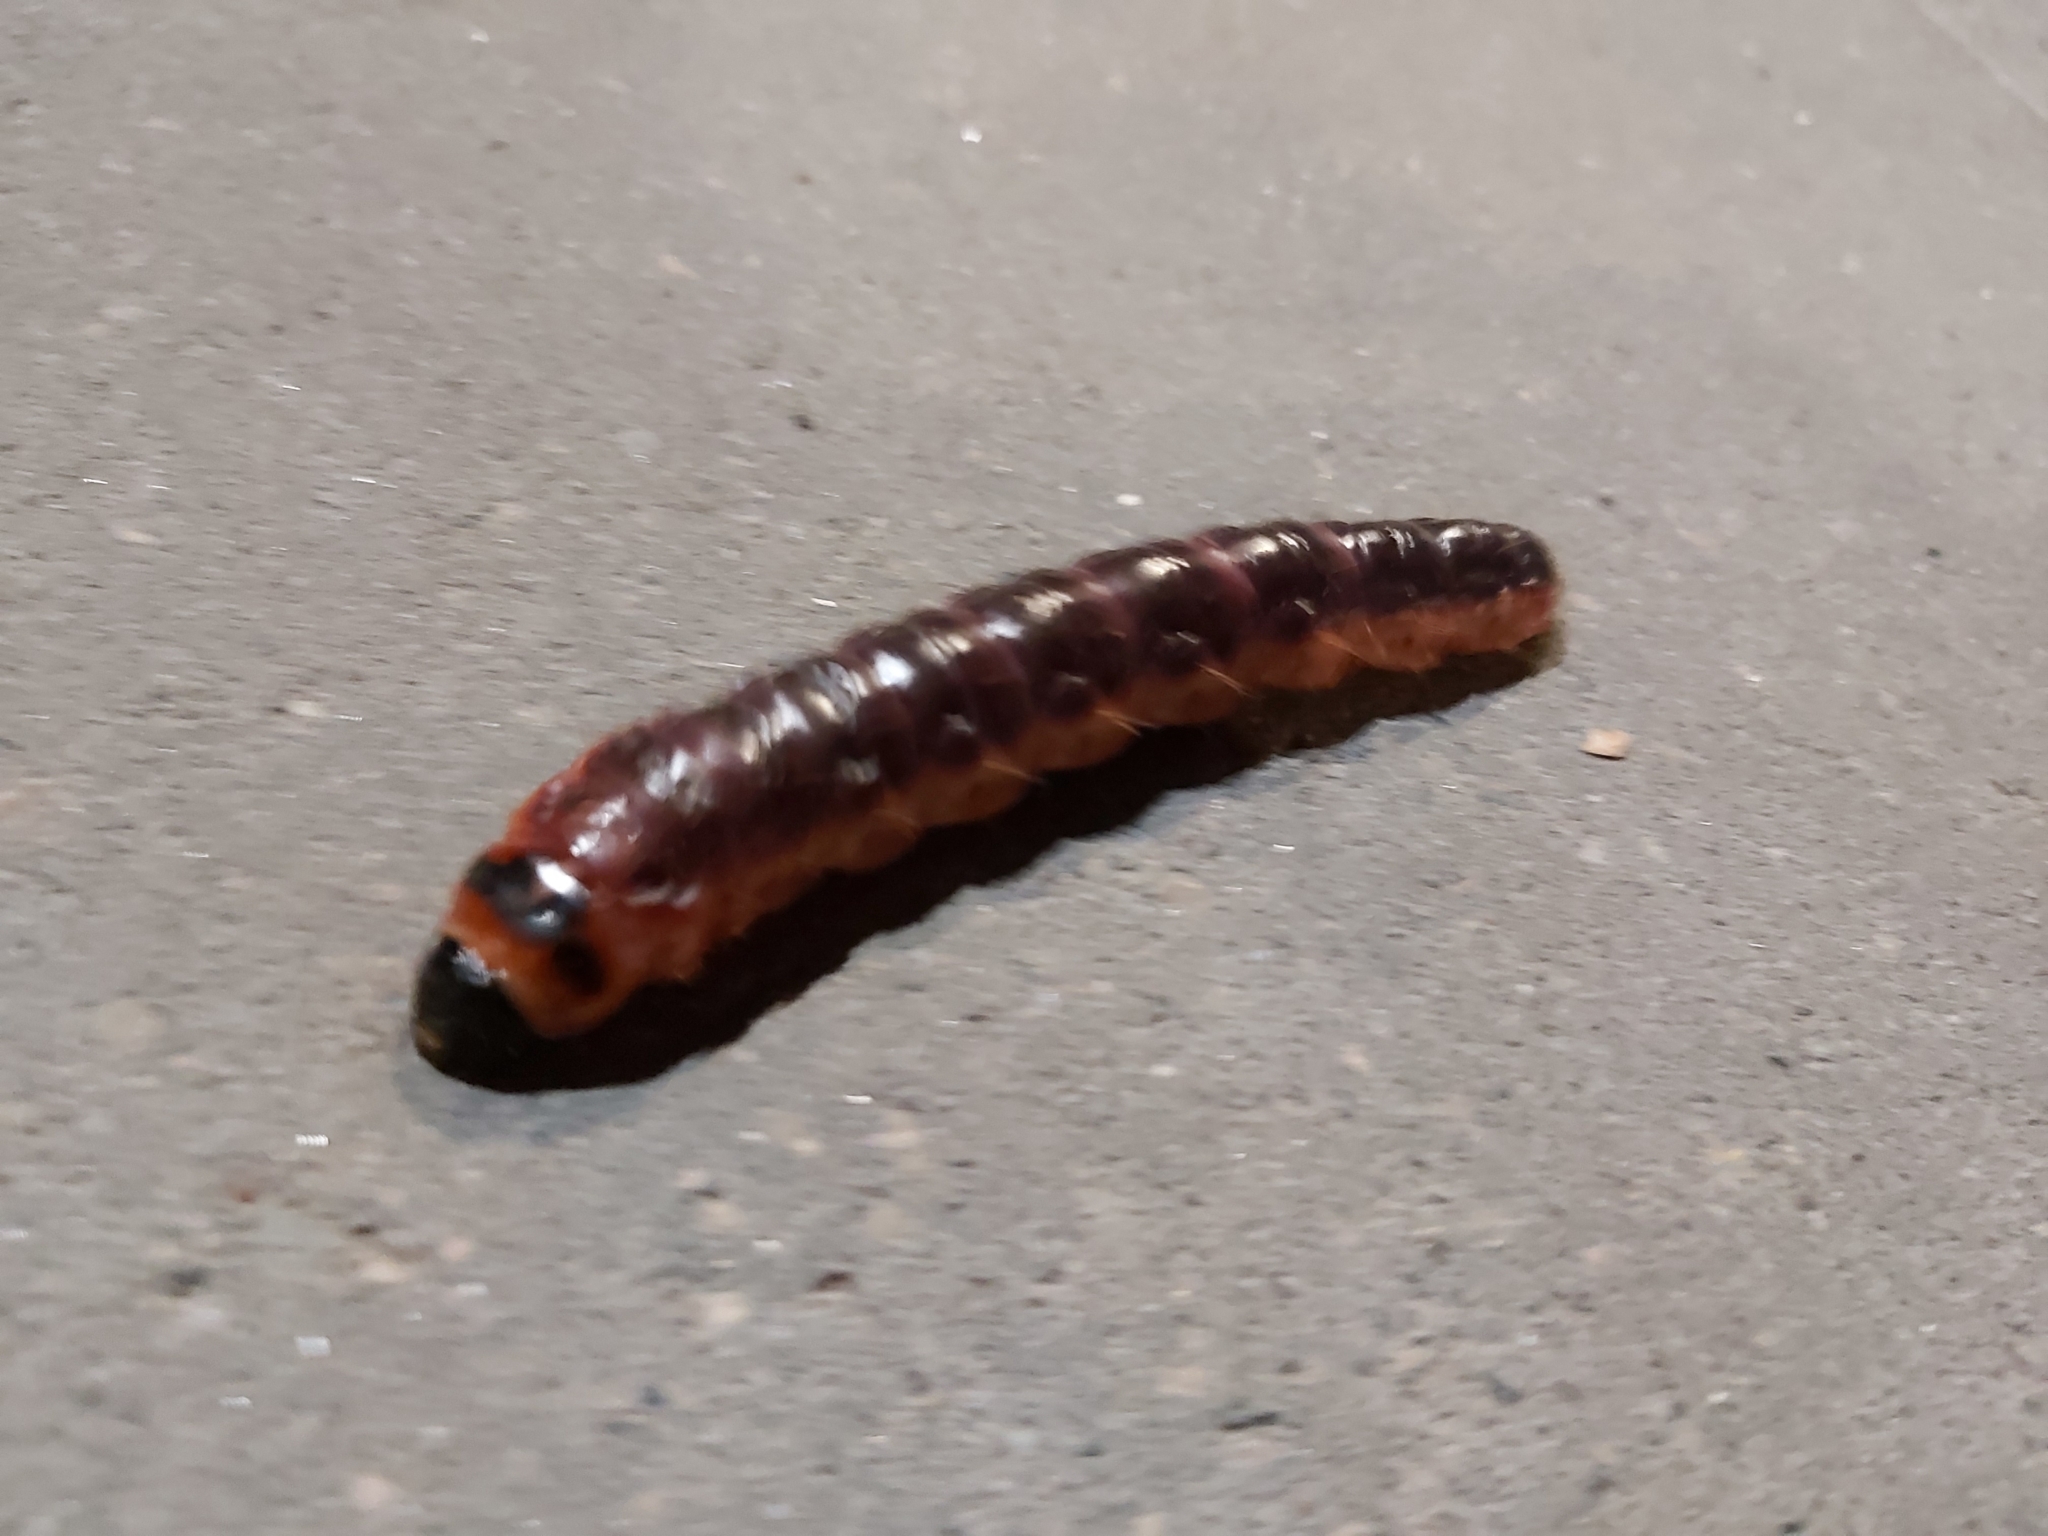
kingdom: Animalia
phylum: Arthropoda
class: Insecta
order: Lepidoptera
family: Cossidae
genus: Cossus
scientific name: Cossus cossus
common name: Goat moth
